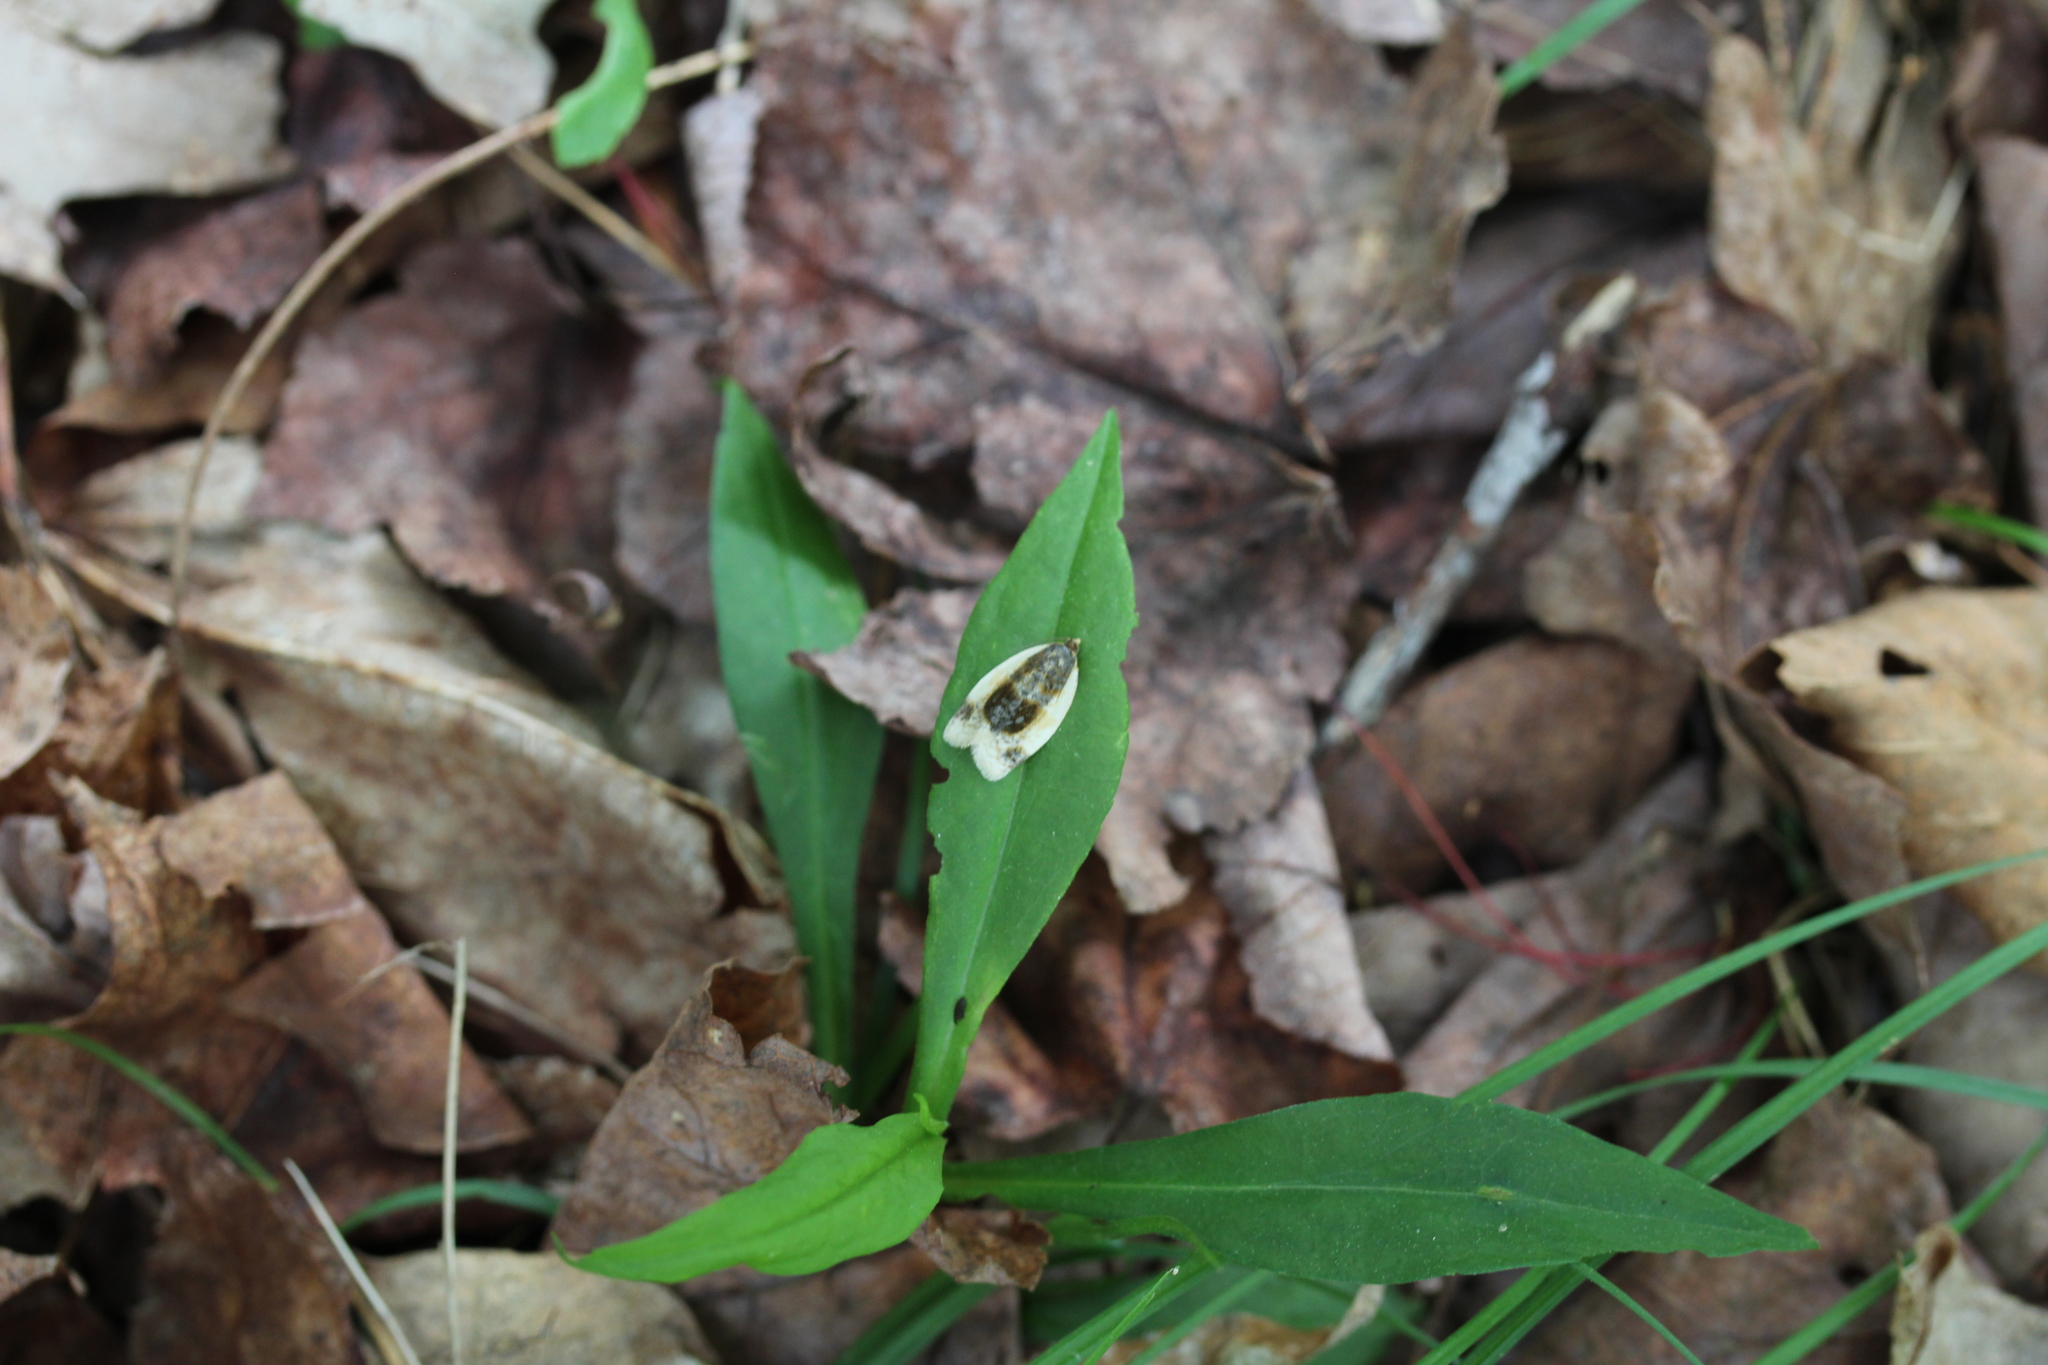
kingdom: Animalia
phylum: Arthropoda
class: Insecta
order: Lepidoptera
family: Tortricidae
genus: Clepsis
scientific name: Clepsis melaleucanus
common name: American apple tortrix
